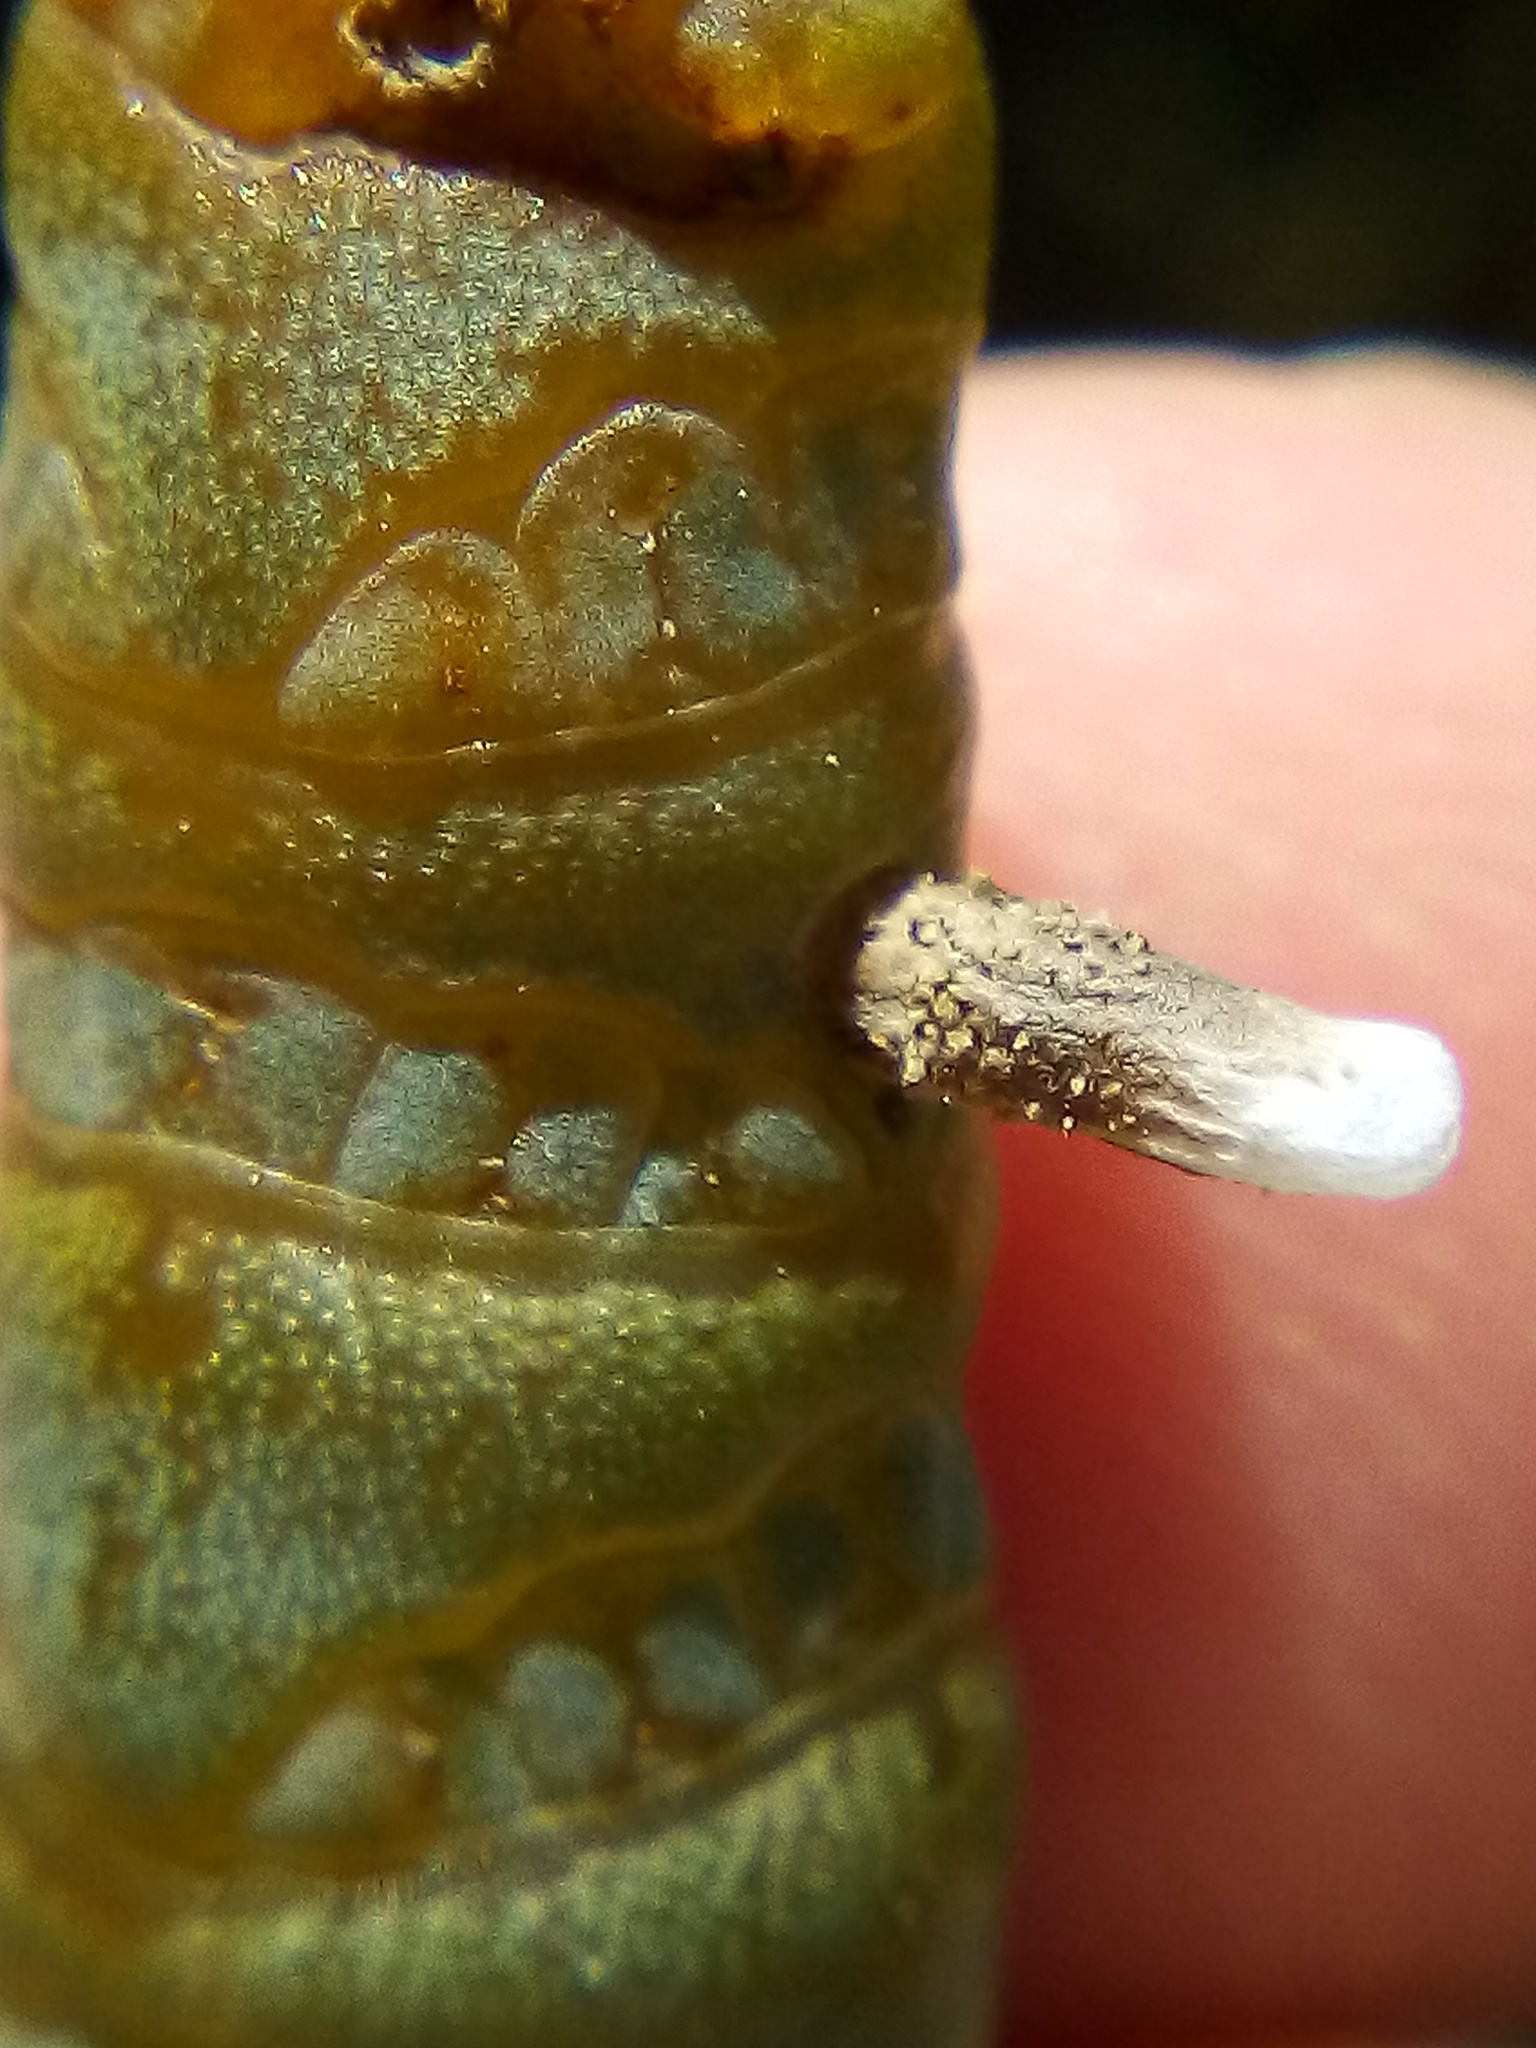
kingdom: Animalia
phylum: Arthropoda
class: Insecta
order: Lepidoptera
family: Coleophoridae
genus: Coleophora
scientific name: Coleophora versurella
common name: Pale orache case-bearer
